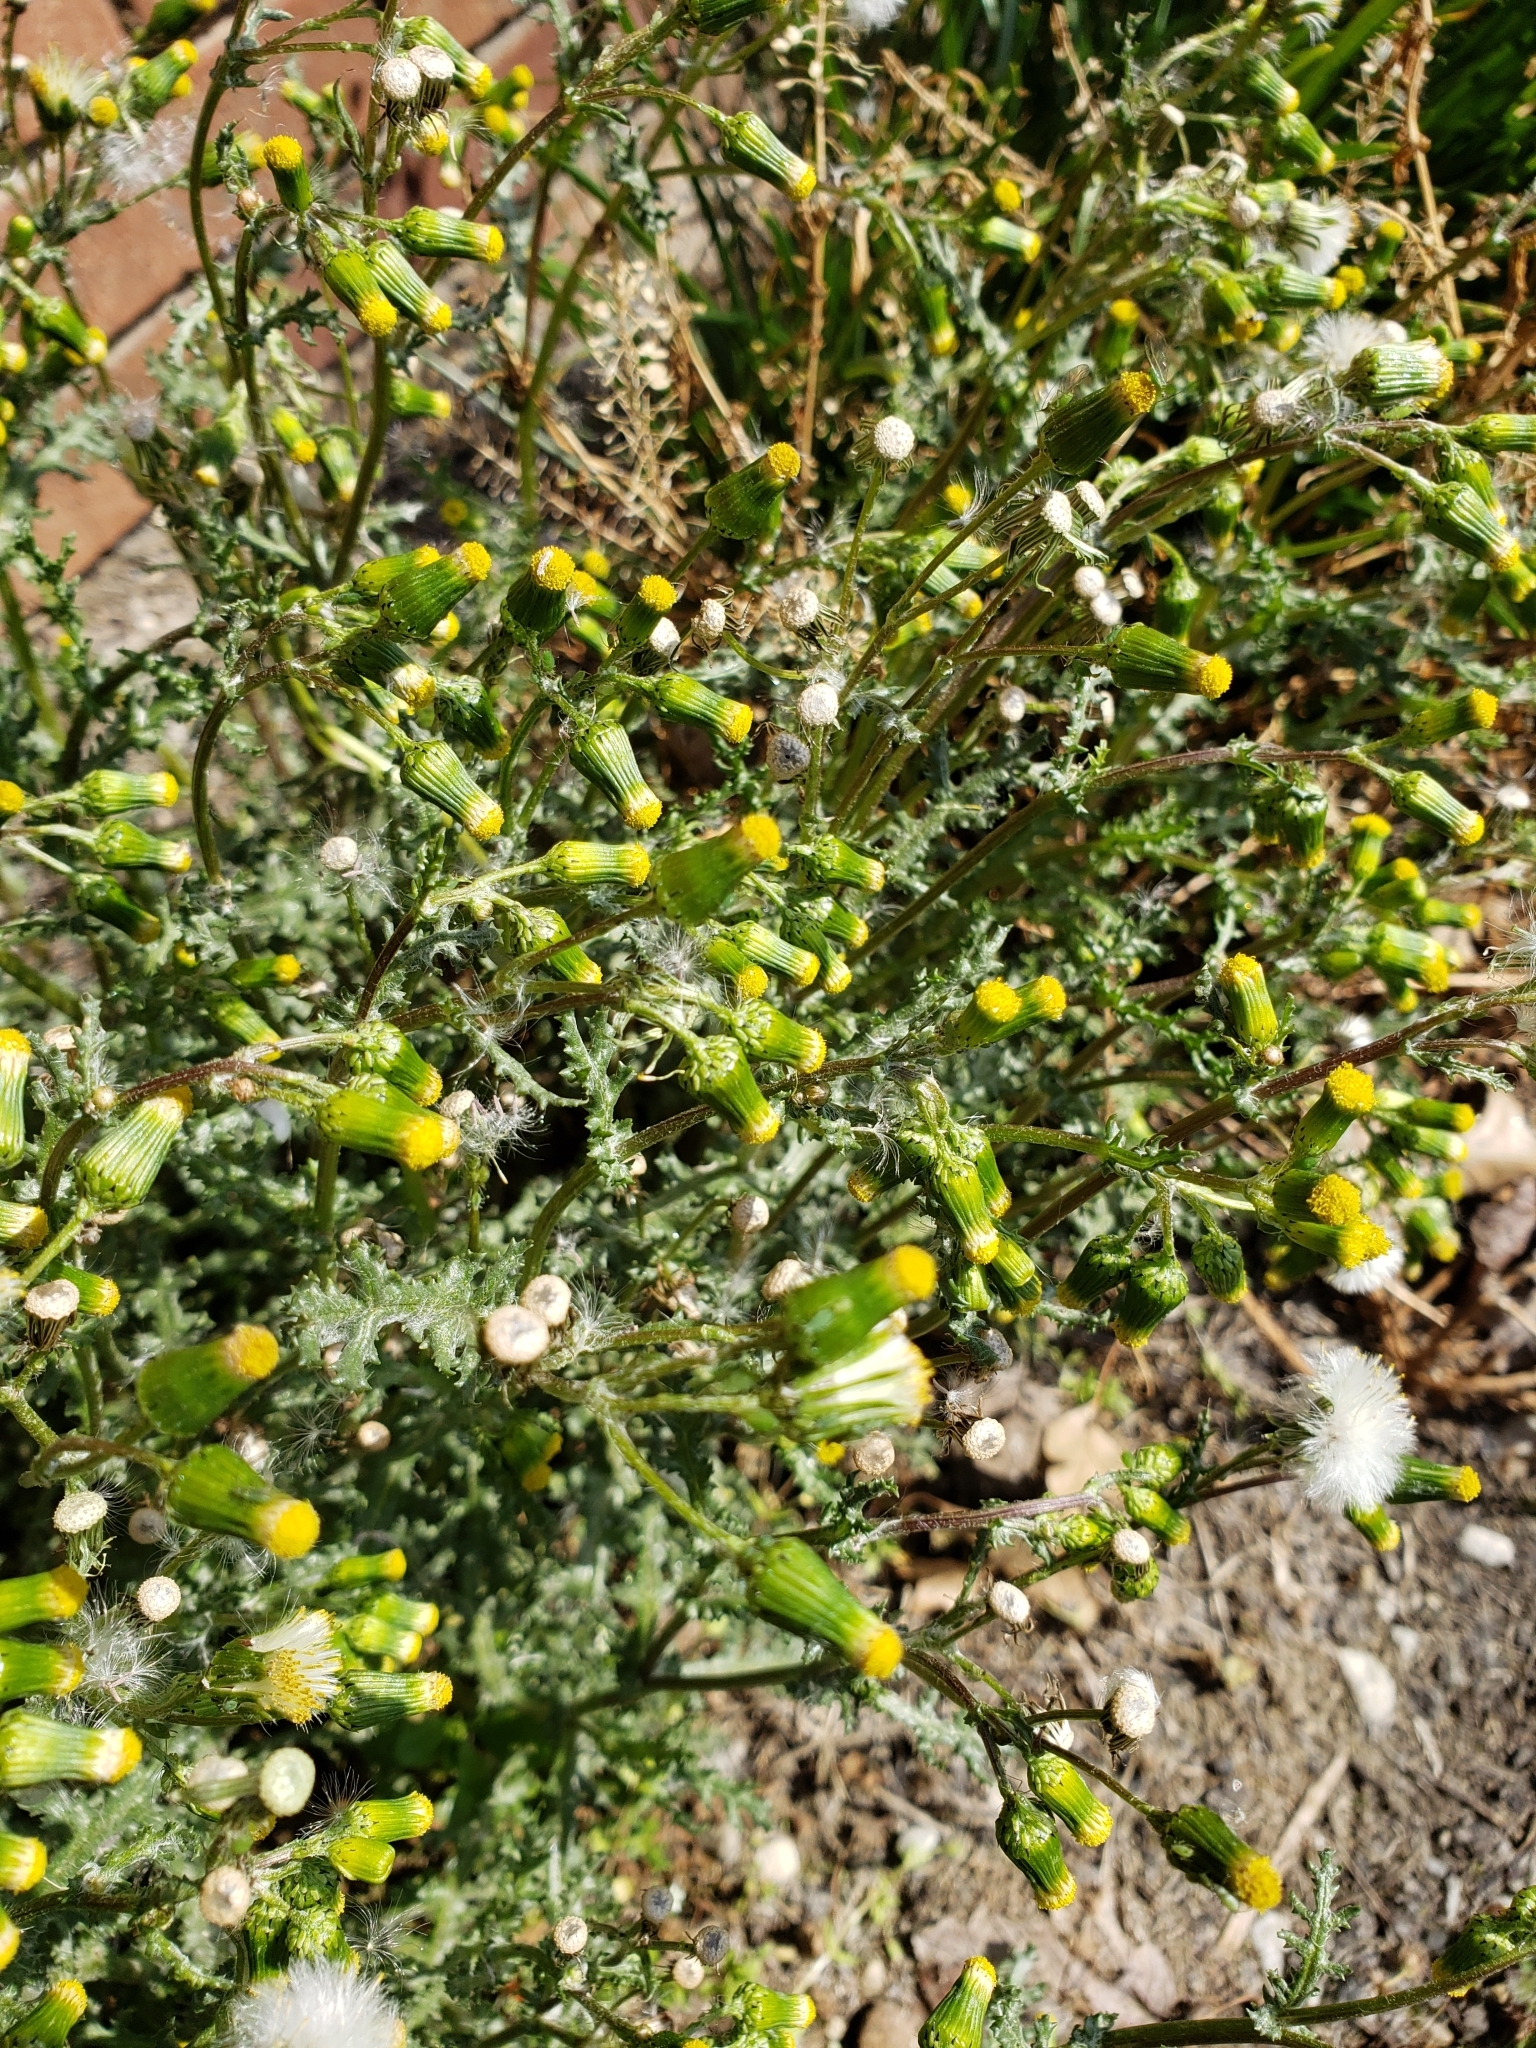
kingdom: Plantae
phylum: Tracheophyta
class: Magnoliopsida
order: Asterales
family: Asteraceae
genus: Senecio
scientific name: Senecio vulgaris
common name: Old-man-in-the-spring
